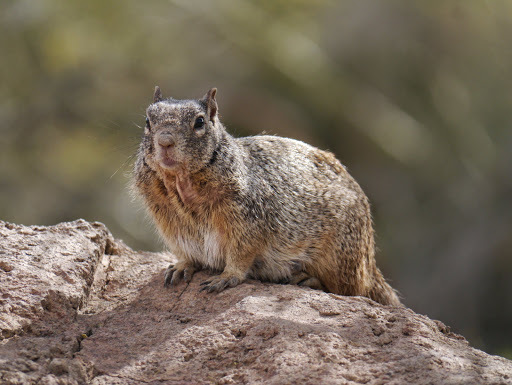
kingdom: Animalia
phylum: Chordata
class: Mammalia
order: Rodentia
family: Sciuridae
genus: Otospermophilus
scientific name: Otospermophilus variegatus
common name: Rock squirrel
